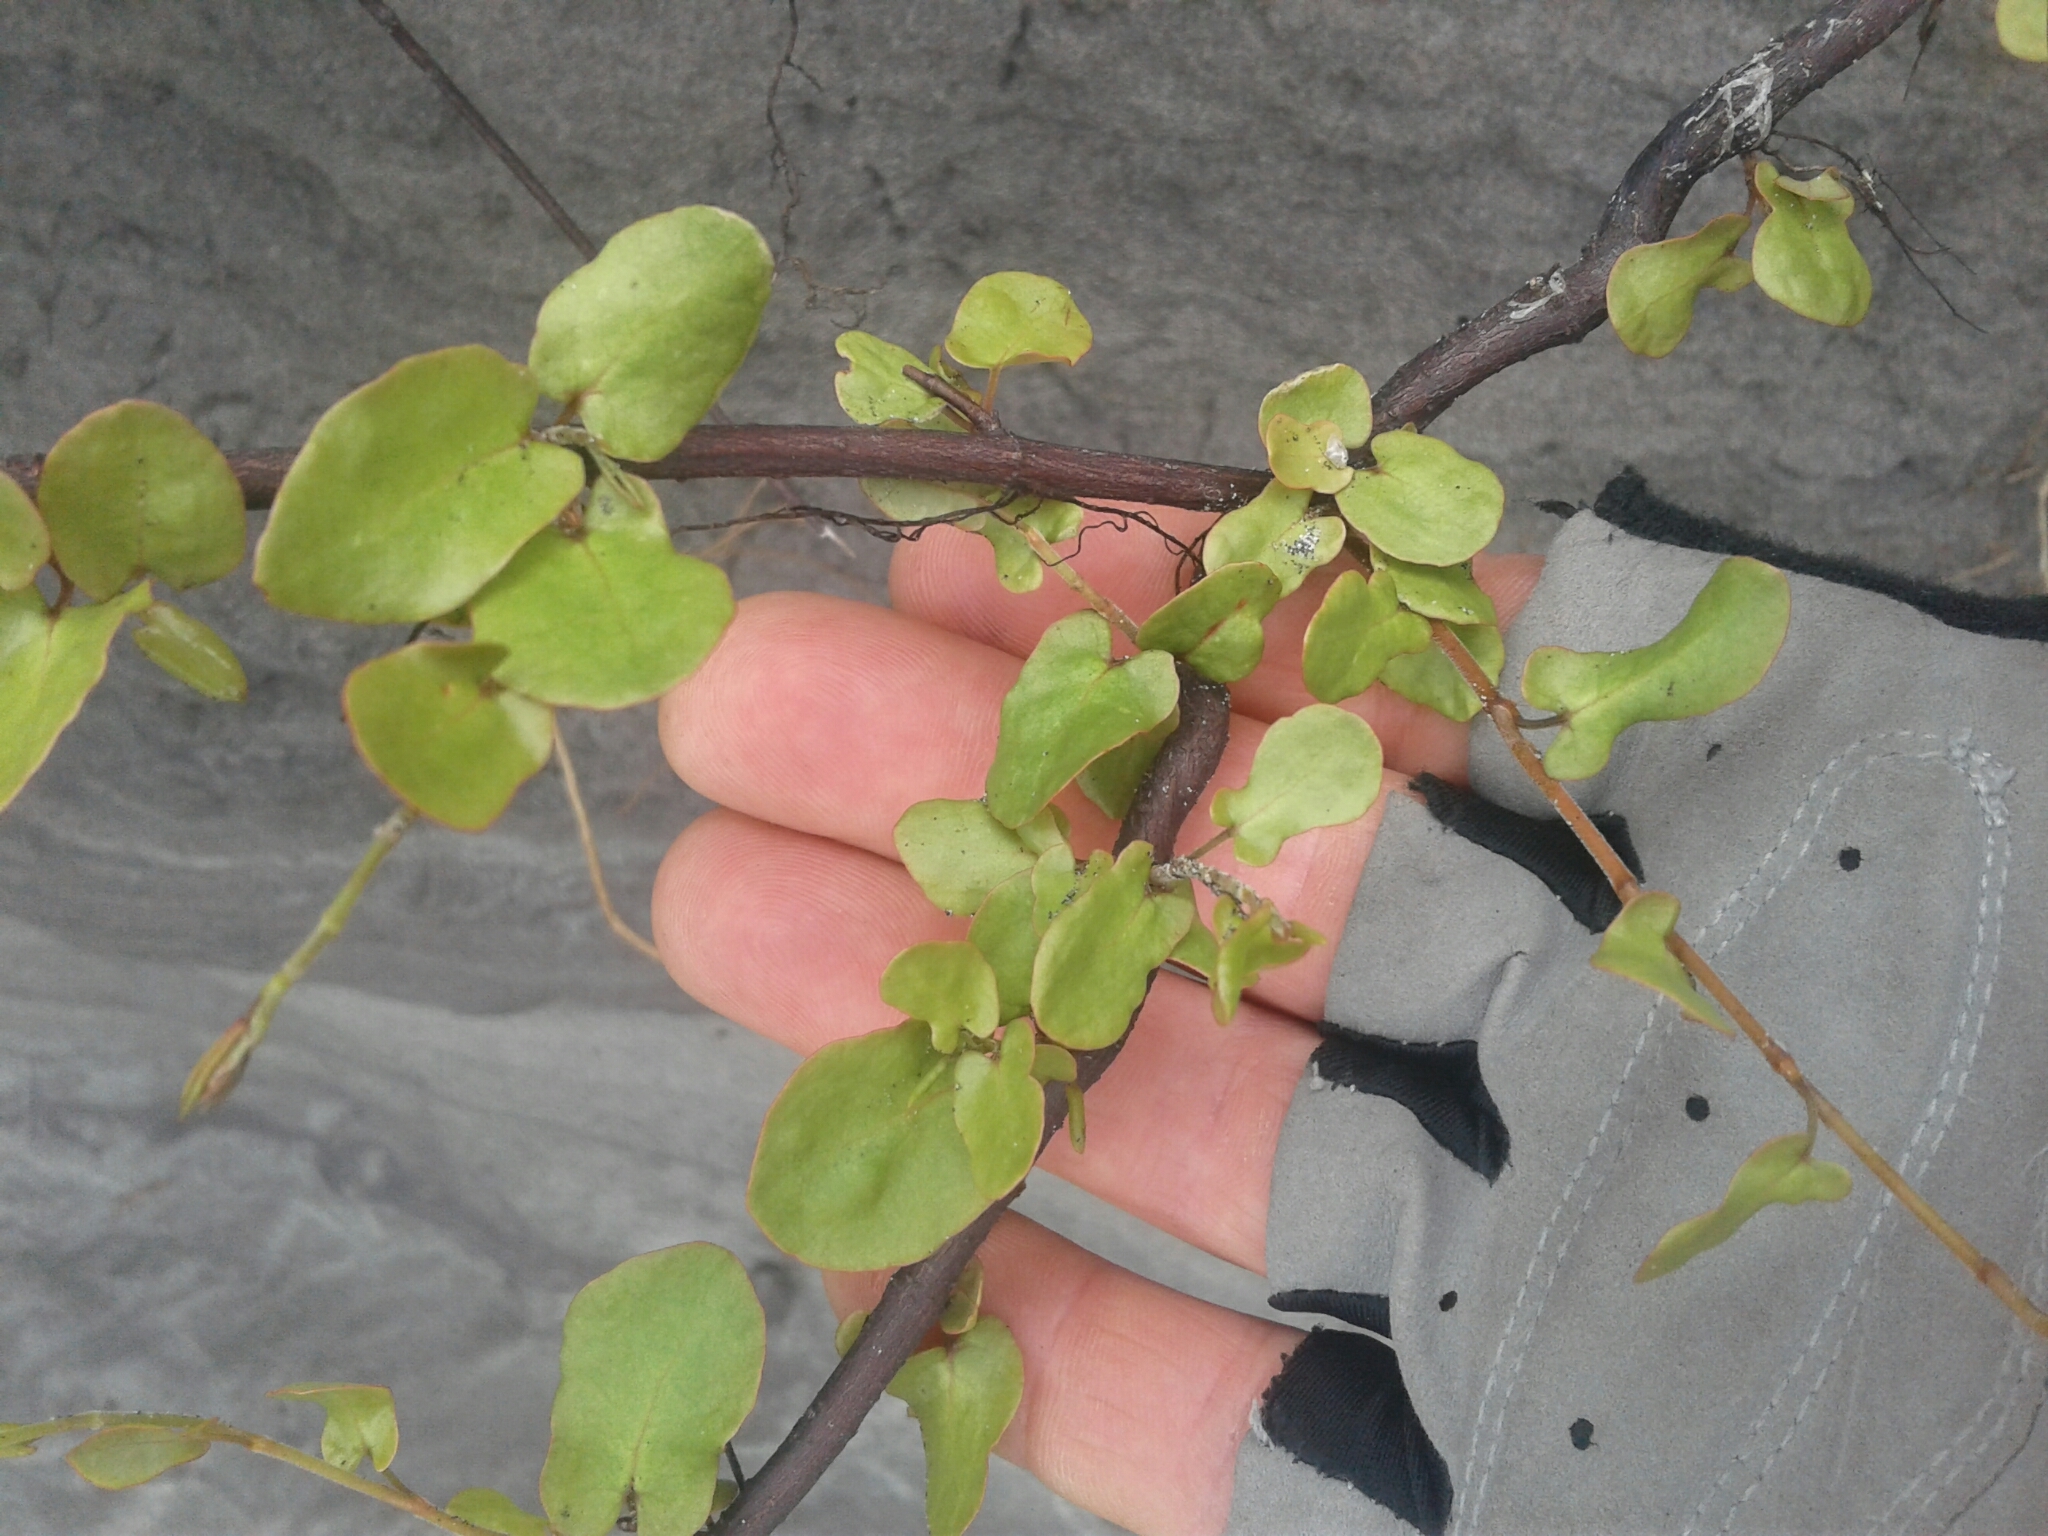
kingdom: Plantae
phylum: Tracheophyta
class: Magnoliopsida
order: Caryophyllales
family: Polygonaceae
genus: Muehlenbeckia
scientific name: Muehlenbeckia complexa
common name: Wireplant
